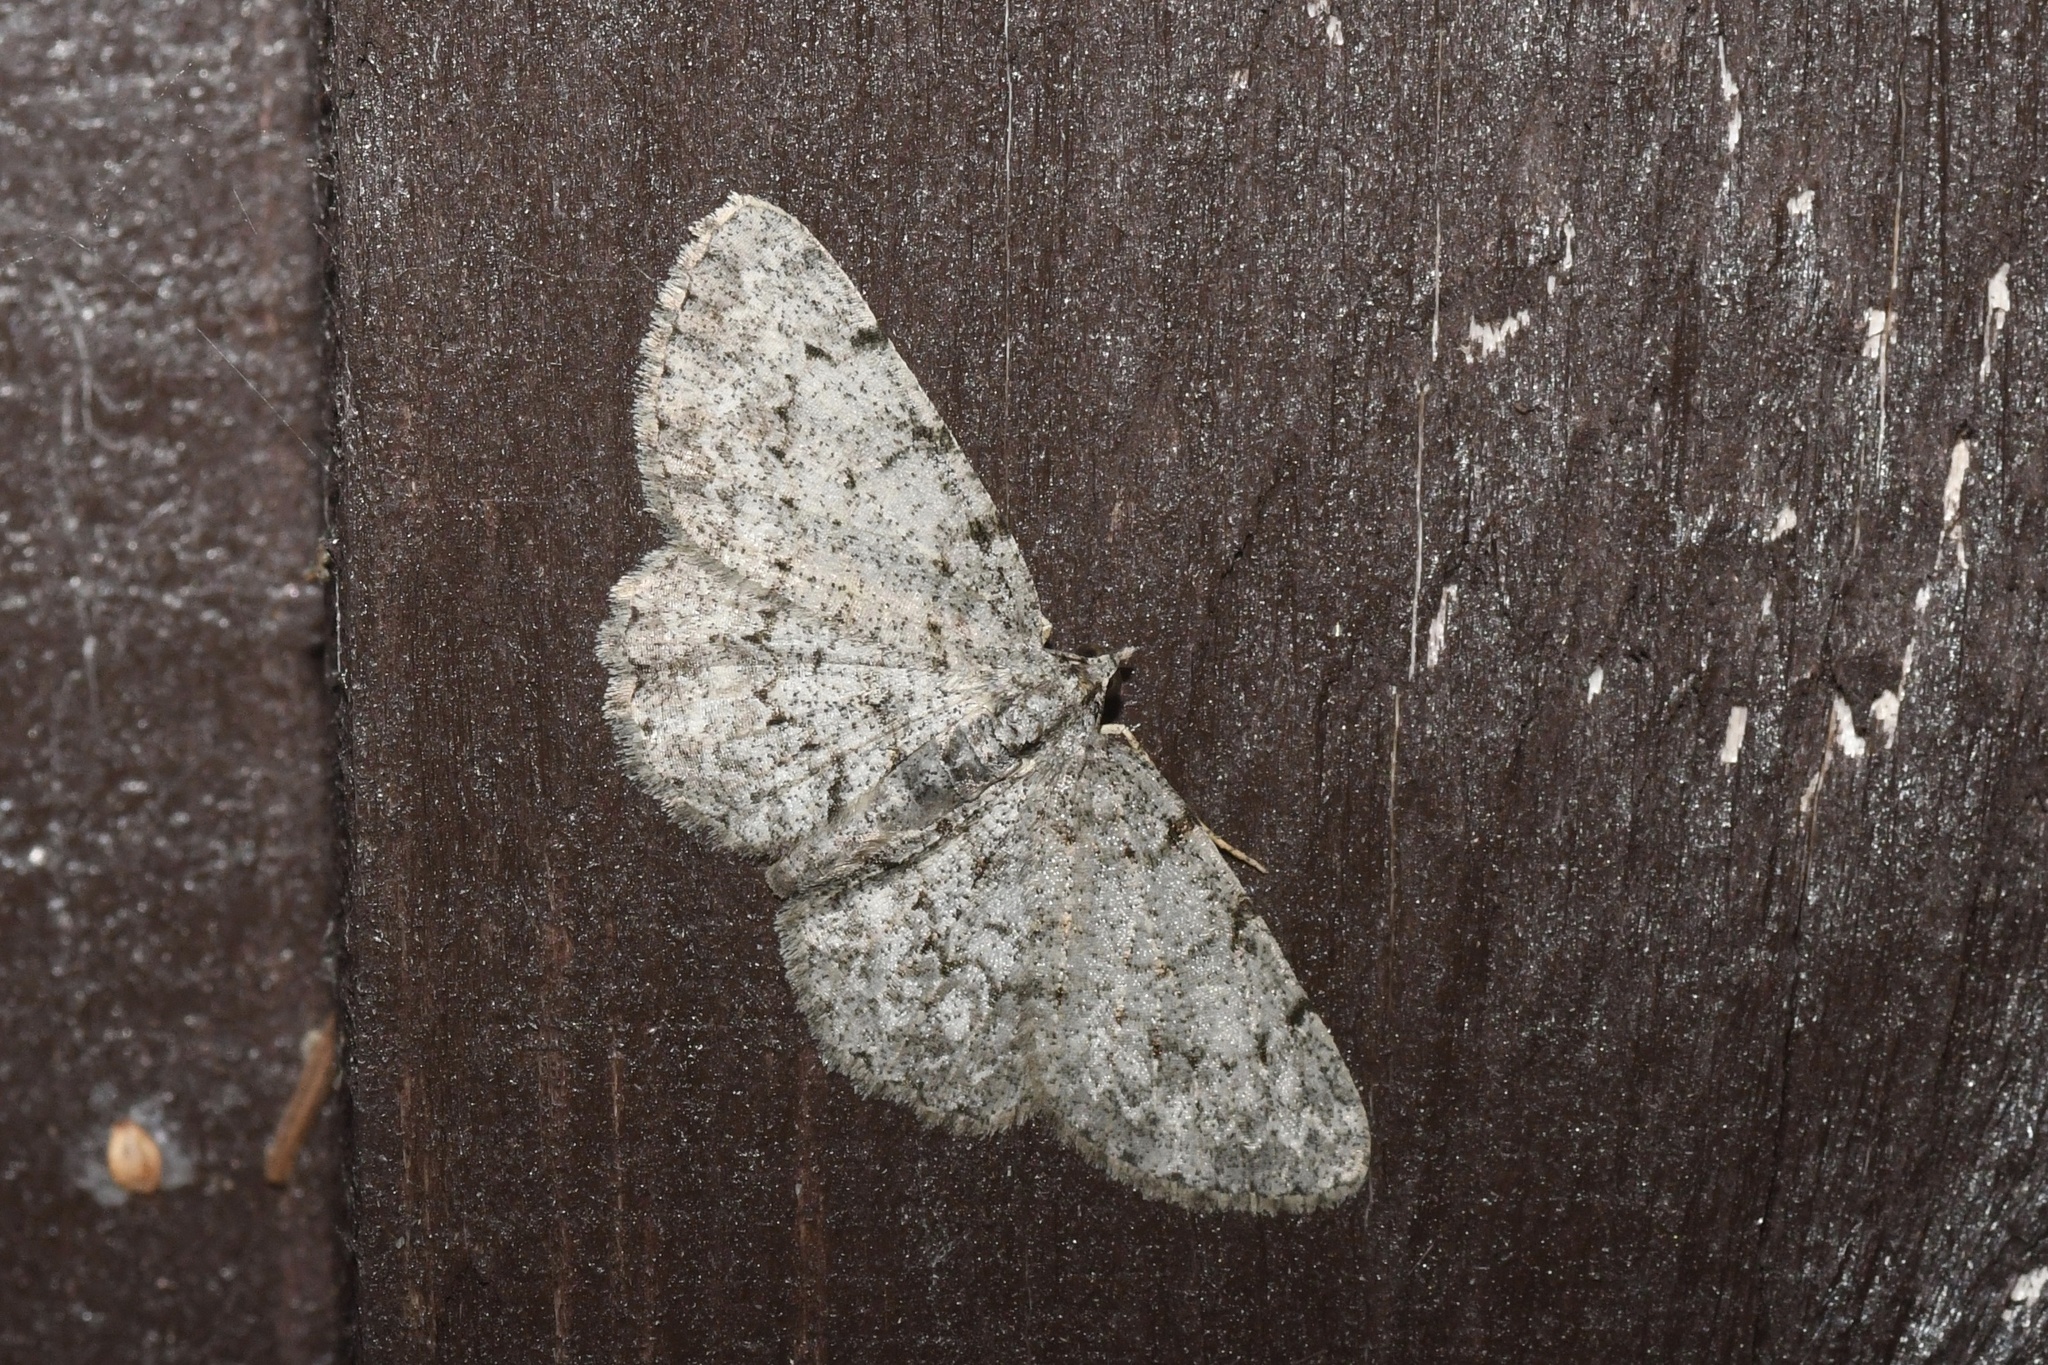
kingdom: Animalia
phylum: Arthropoda
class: Insecta
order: Lepidoptera
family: Geometridae
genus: Protoboarmia
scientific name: Protoboarmia porcelaria
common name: Porcelain gray
